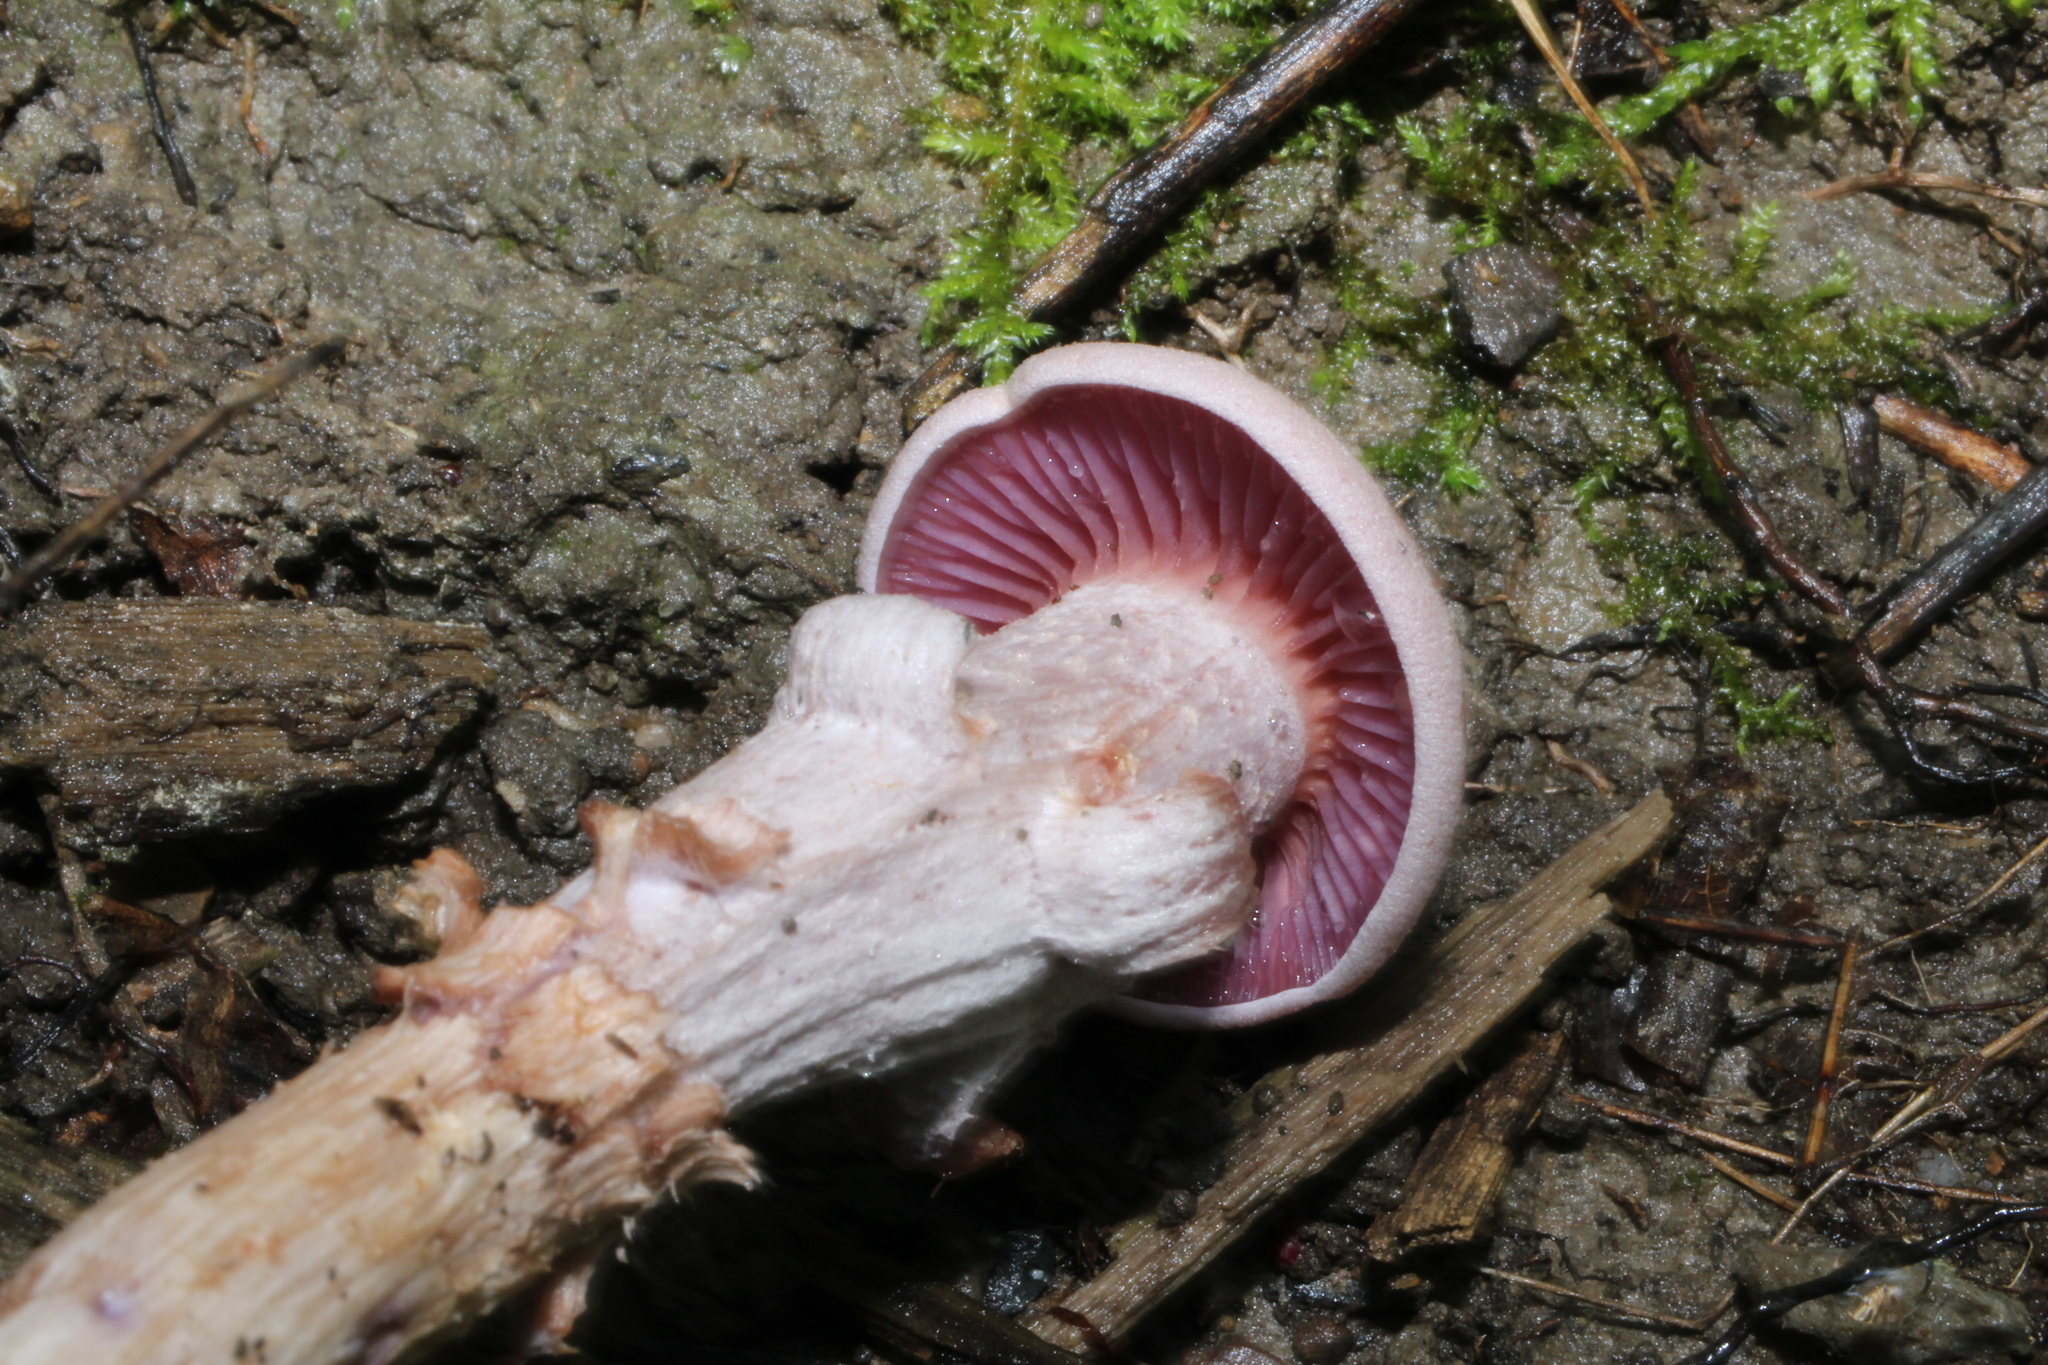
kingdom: Fungi
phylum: Basidiomycota
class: Agaricomycetes
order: Agaricales
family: Hydnangiaceae
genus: Laccaria
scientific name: Laccaria ochropurpurea
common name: Purple laccaria
